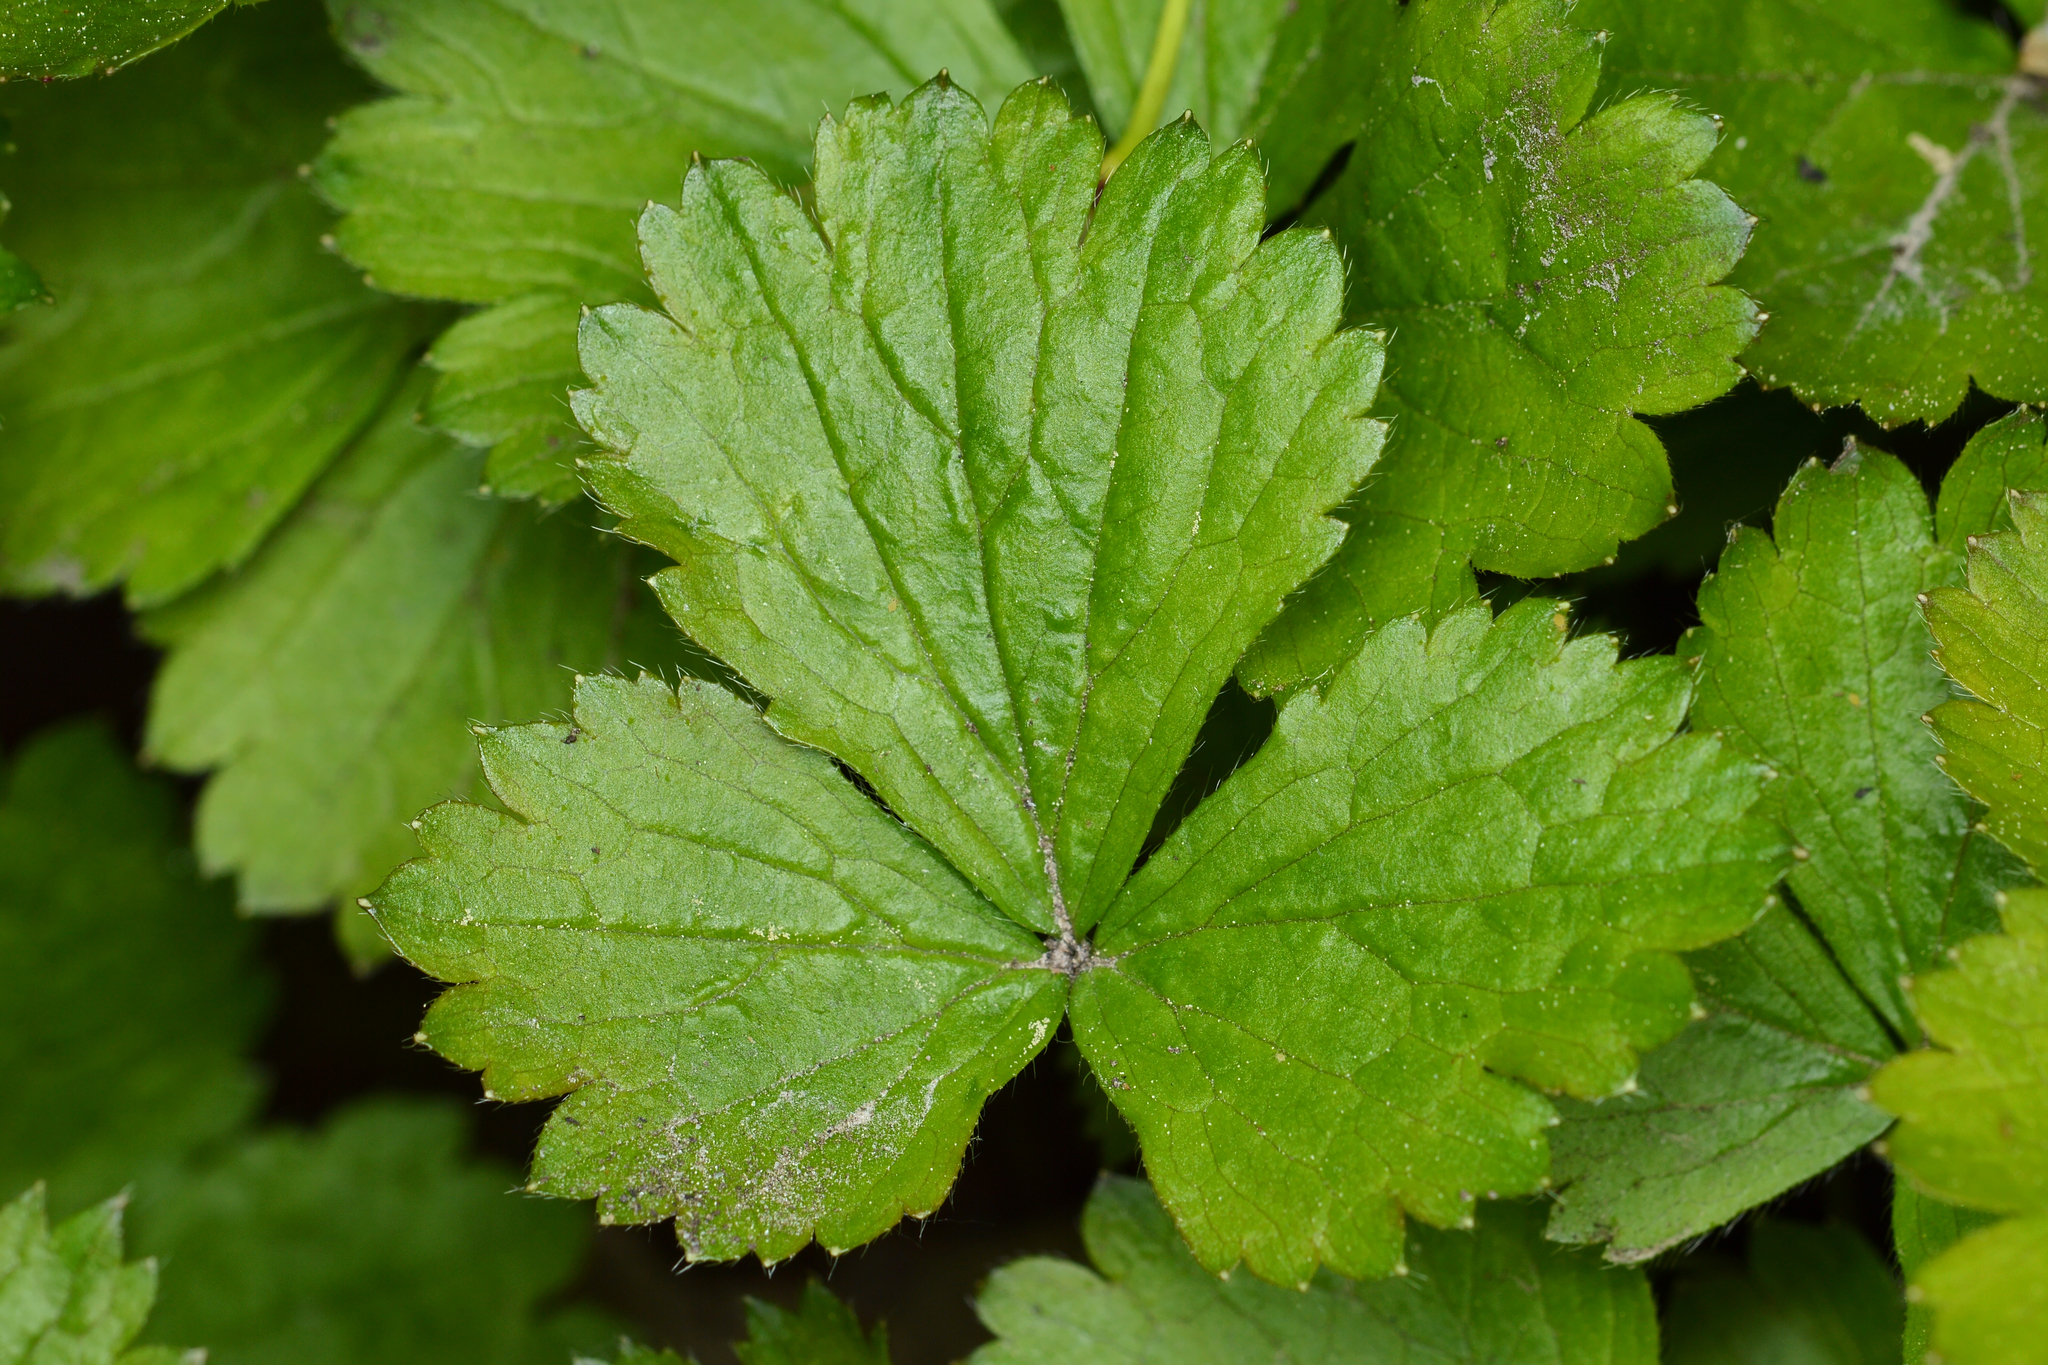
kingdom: Plantae
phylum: Tracheophyta
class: Magnoliopsida
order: Rosales
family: Rosaceae
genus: Geum
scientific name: Geum fragarioides
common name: Appalachian barren strawberry
